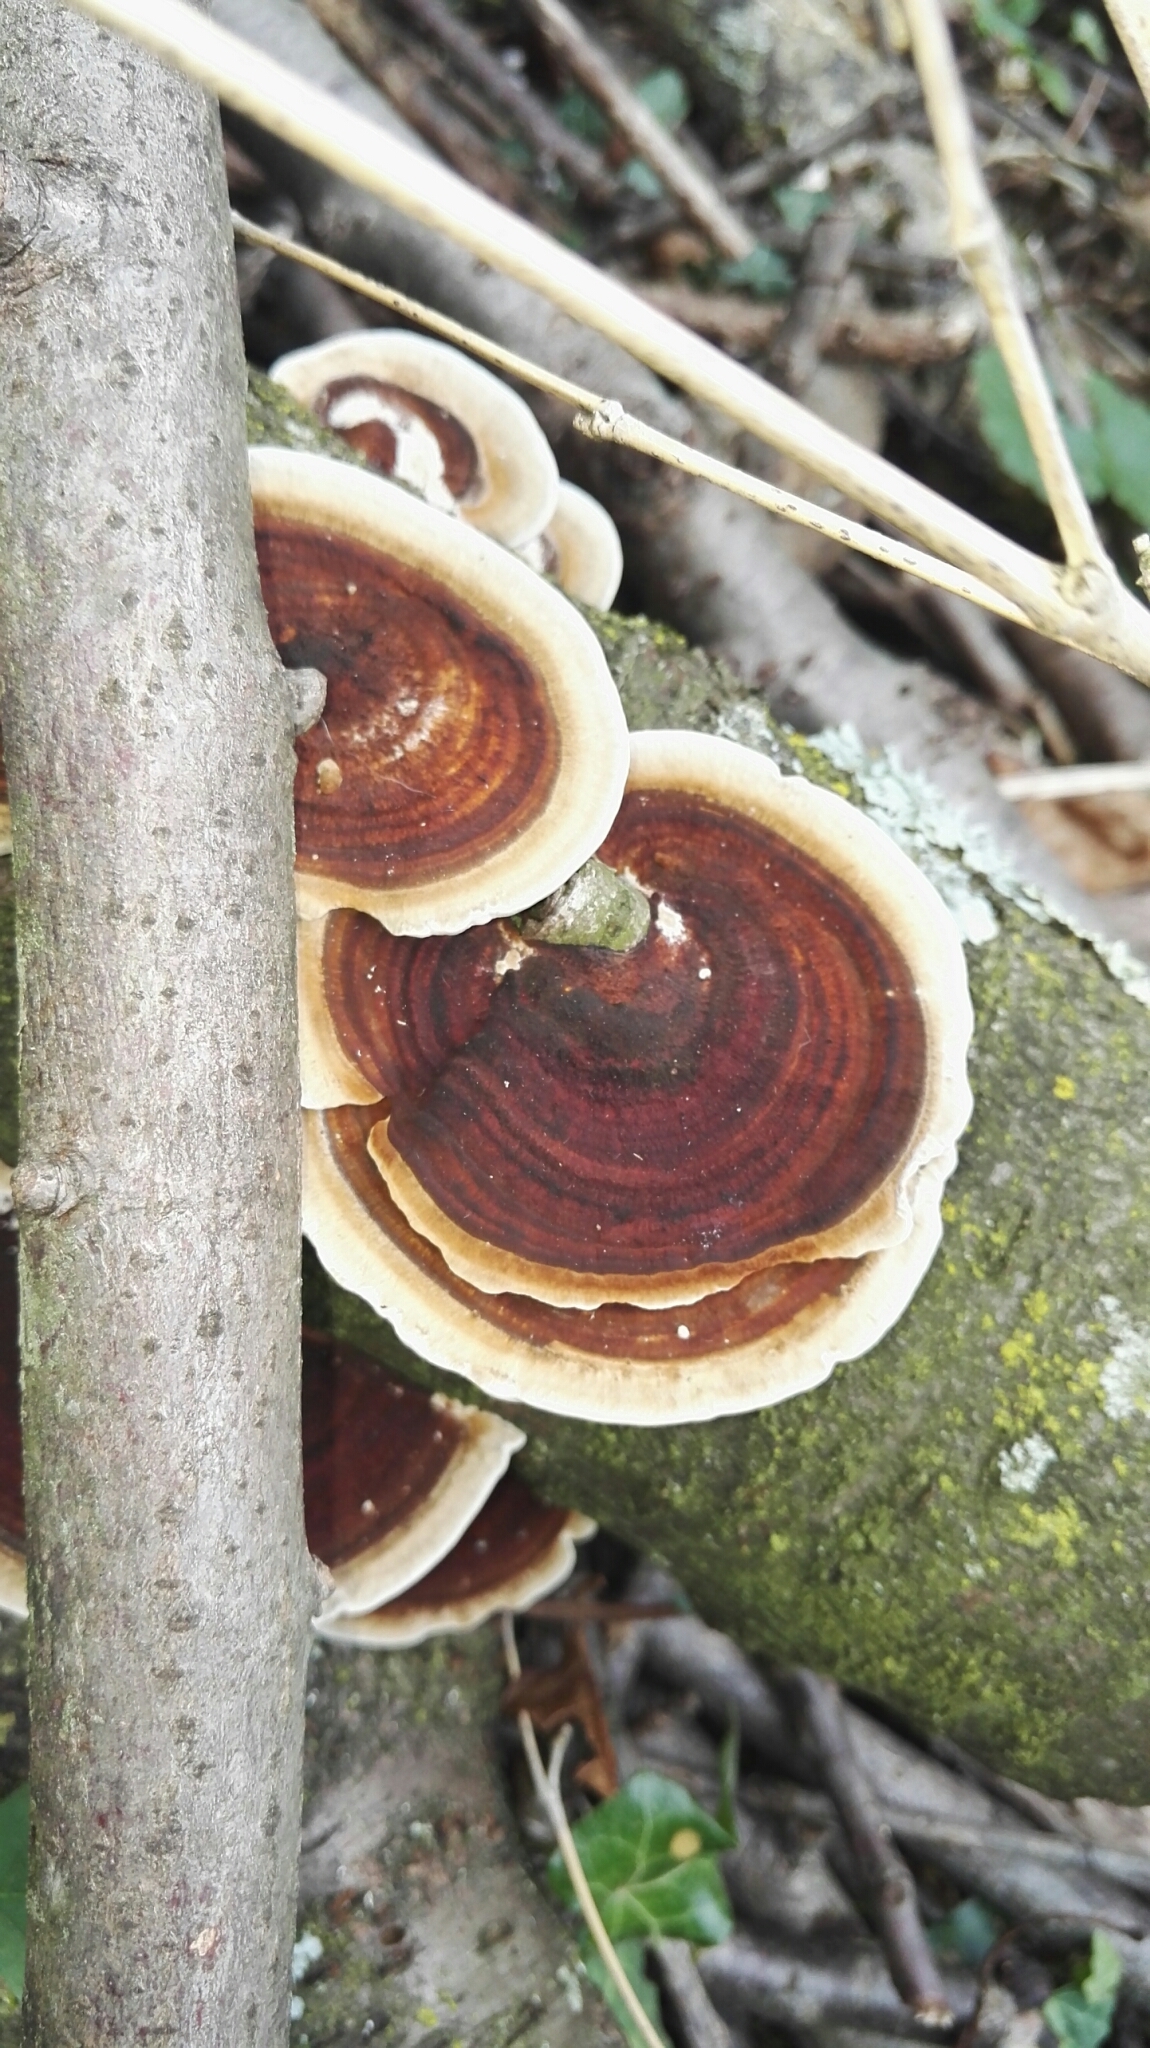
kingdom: Fungi
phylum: Basidiomycota
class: Agaricomycetes
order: Polyporales
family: Polyporaceae
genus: Daedaleopsis
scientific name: Daedaleopsis confragosa
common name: Blushing bracket
